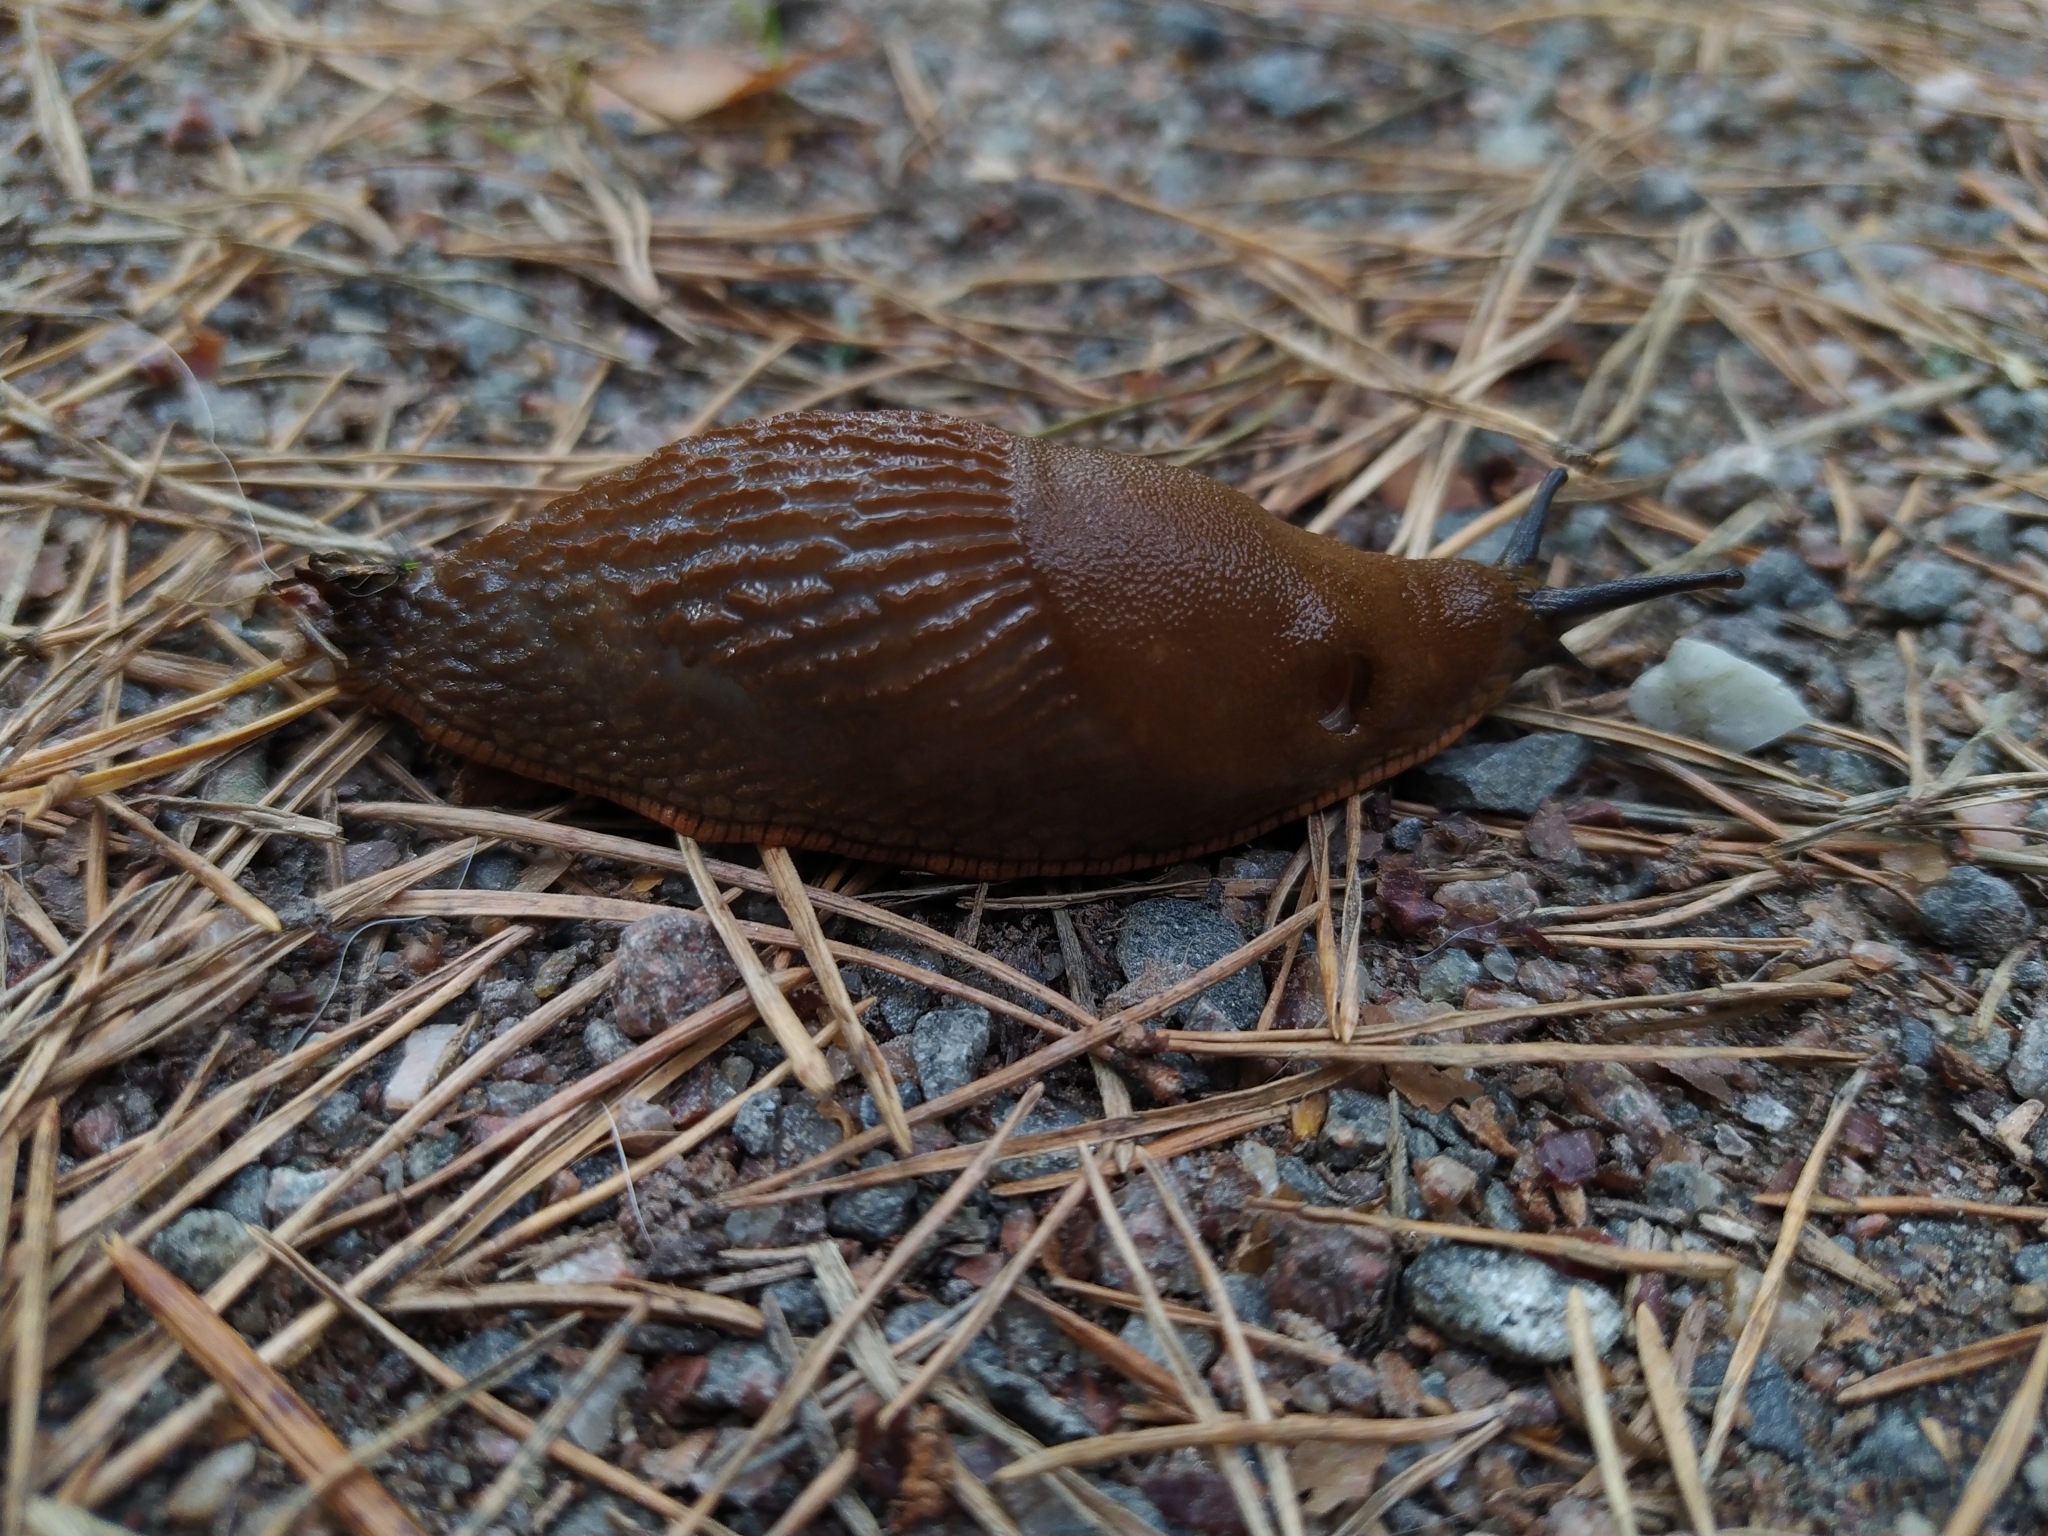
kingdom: Animalia
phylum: Mollusca
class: Gastropoda
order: Stylommatophora
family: Arionidae
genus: Arion
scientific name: Arion vulgaris
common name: Lusitanian slug
